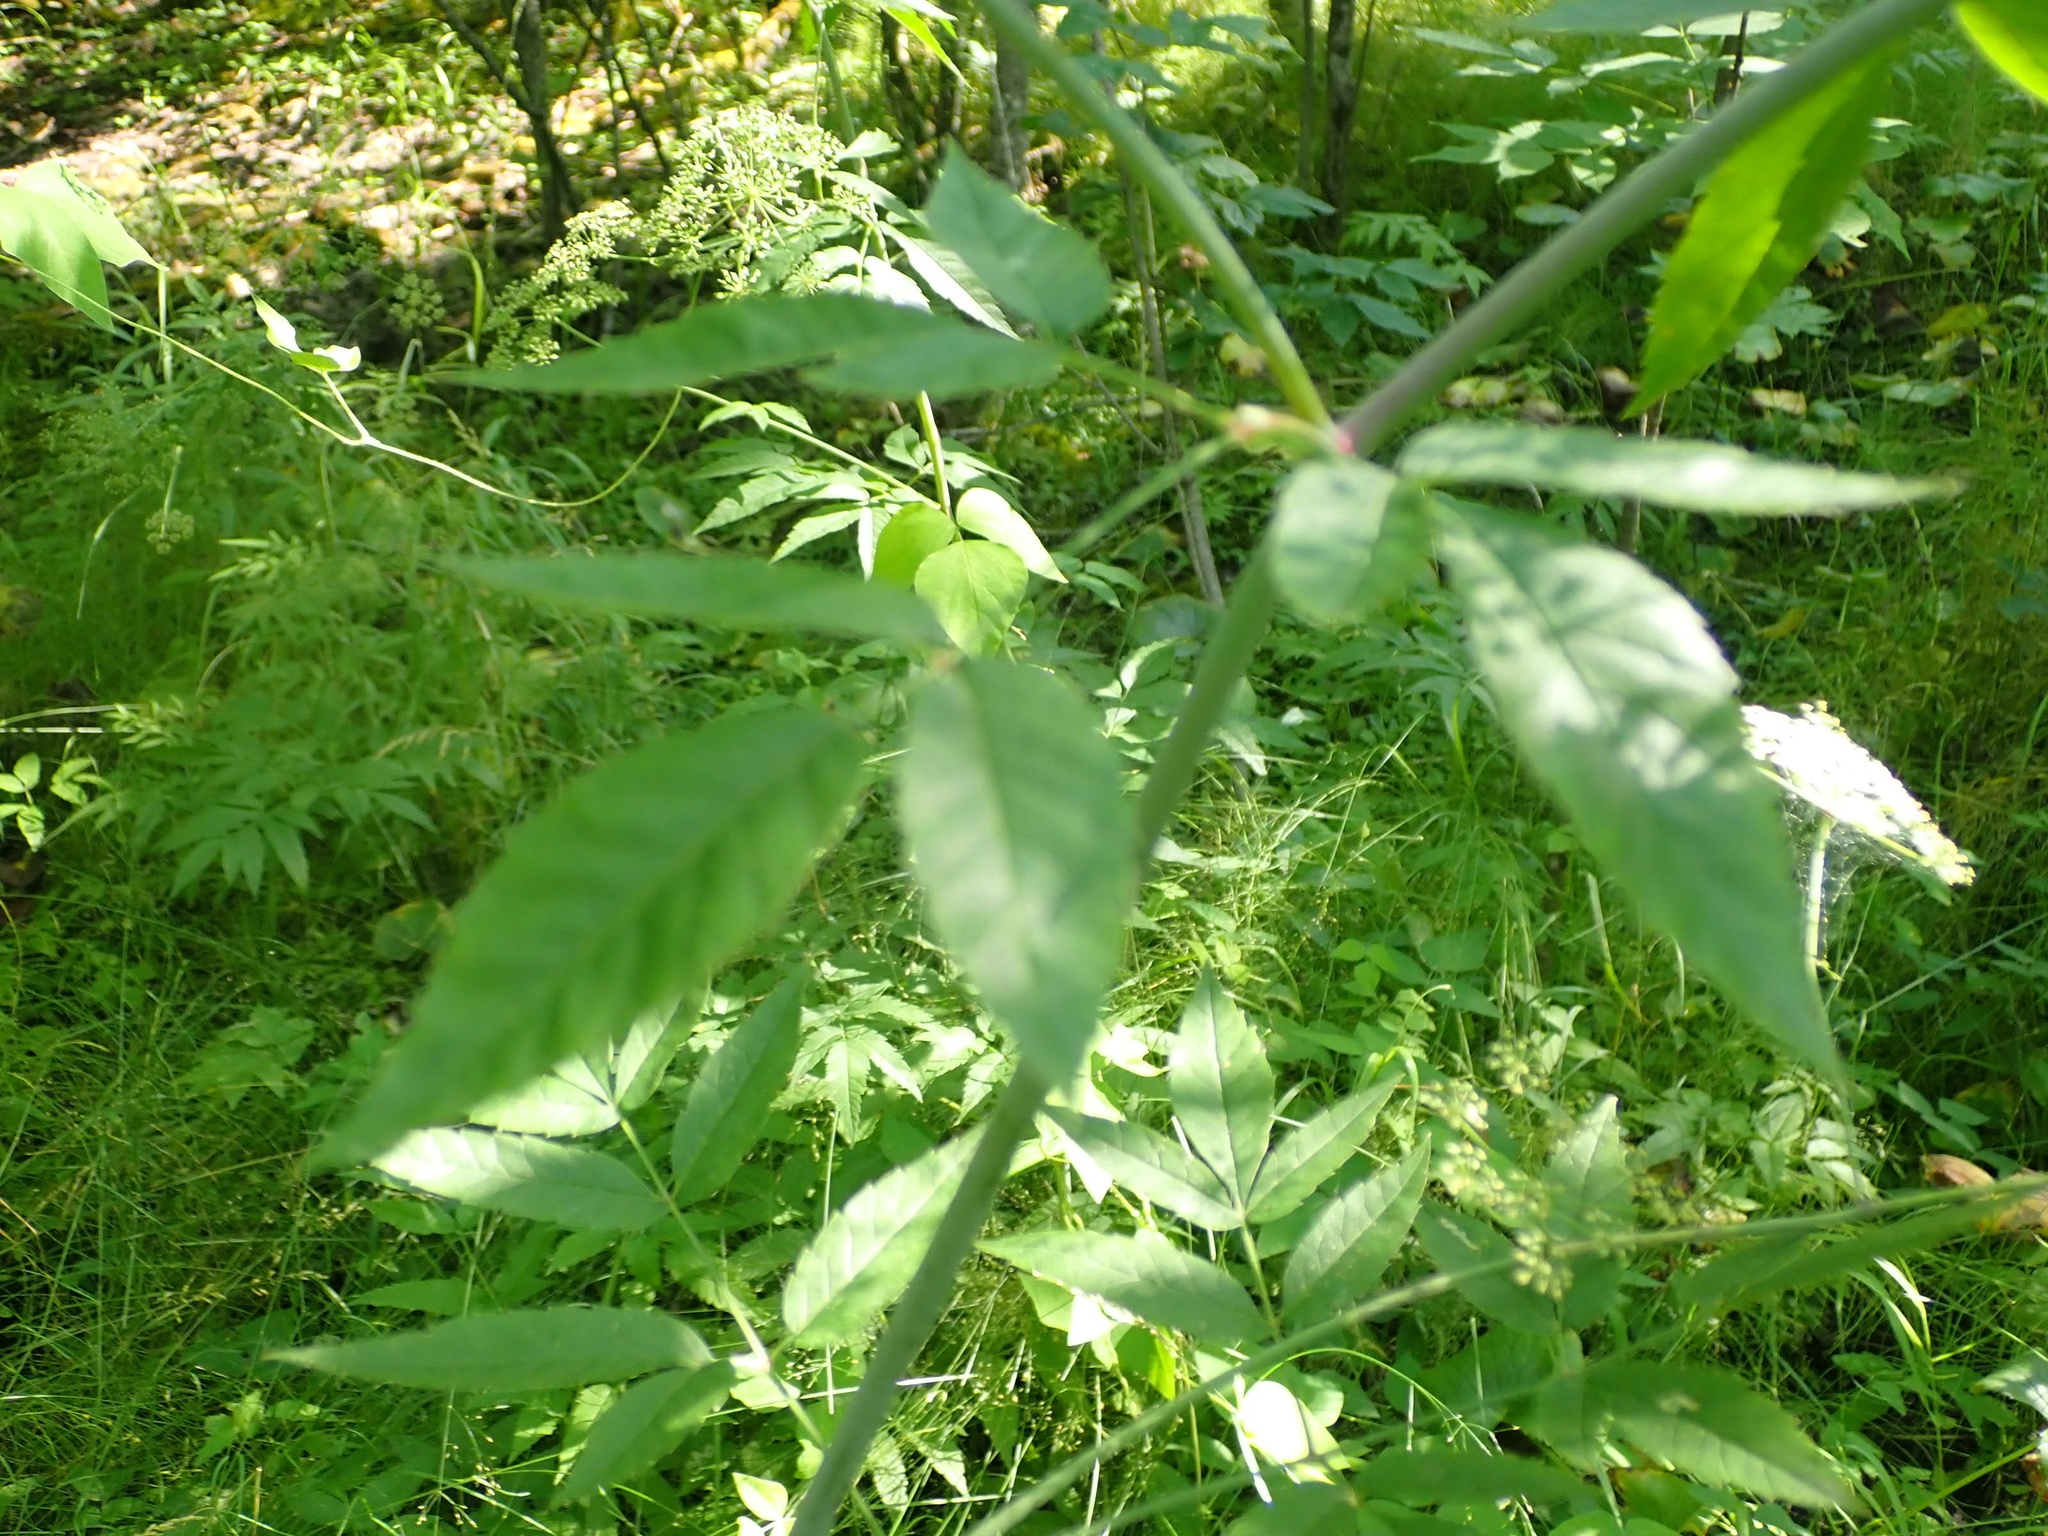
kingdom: Plantae
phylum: Tracheophyta
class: Magnoliopsida
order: Apiales
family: Apiaceae
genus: Cicuta
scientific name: Cicuta maculata
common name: Spotted cowbane
